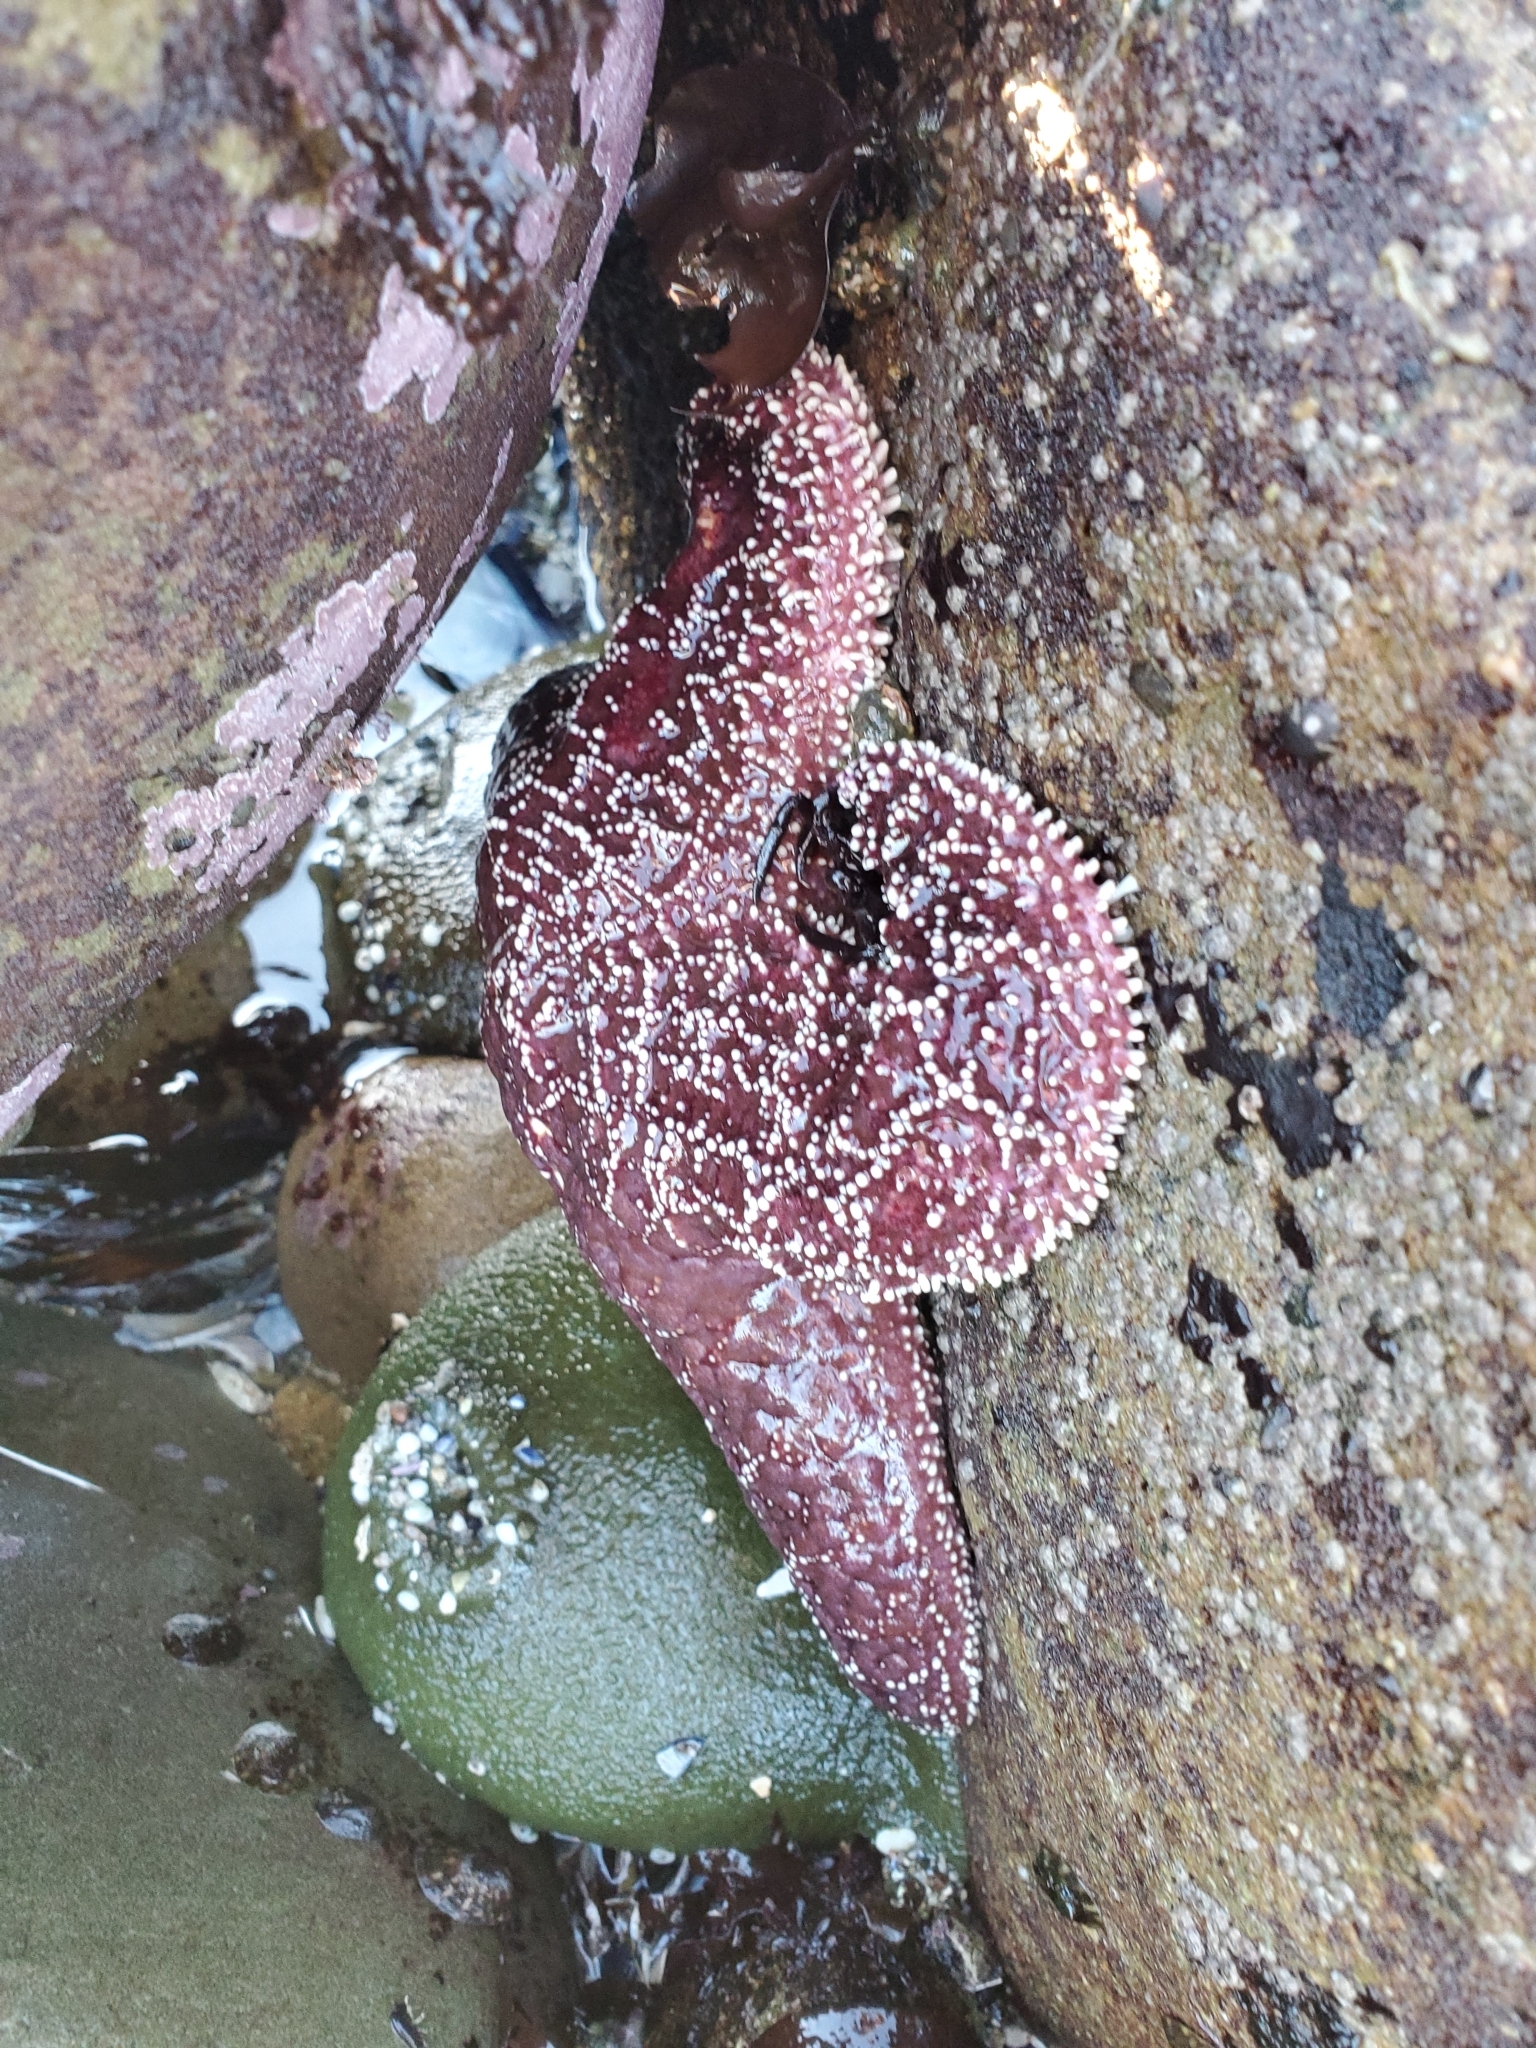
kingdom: Animalia
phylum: Echinodermata
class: Asteroidea
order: Forcipulatida
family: Asteriidae
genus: Pisaster
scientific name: Pisaster ochraceus
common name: Ochre stars
